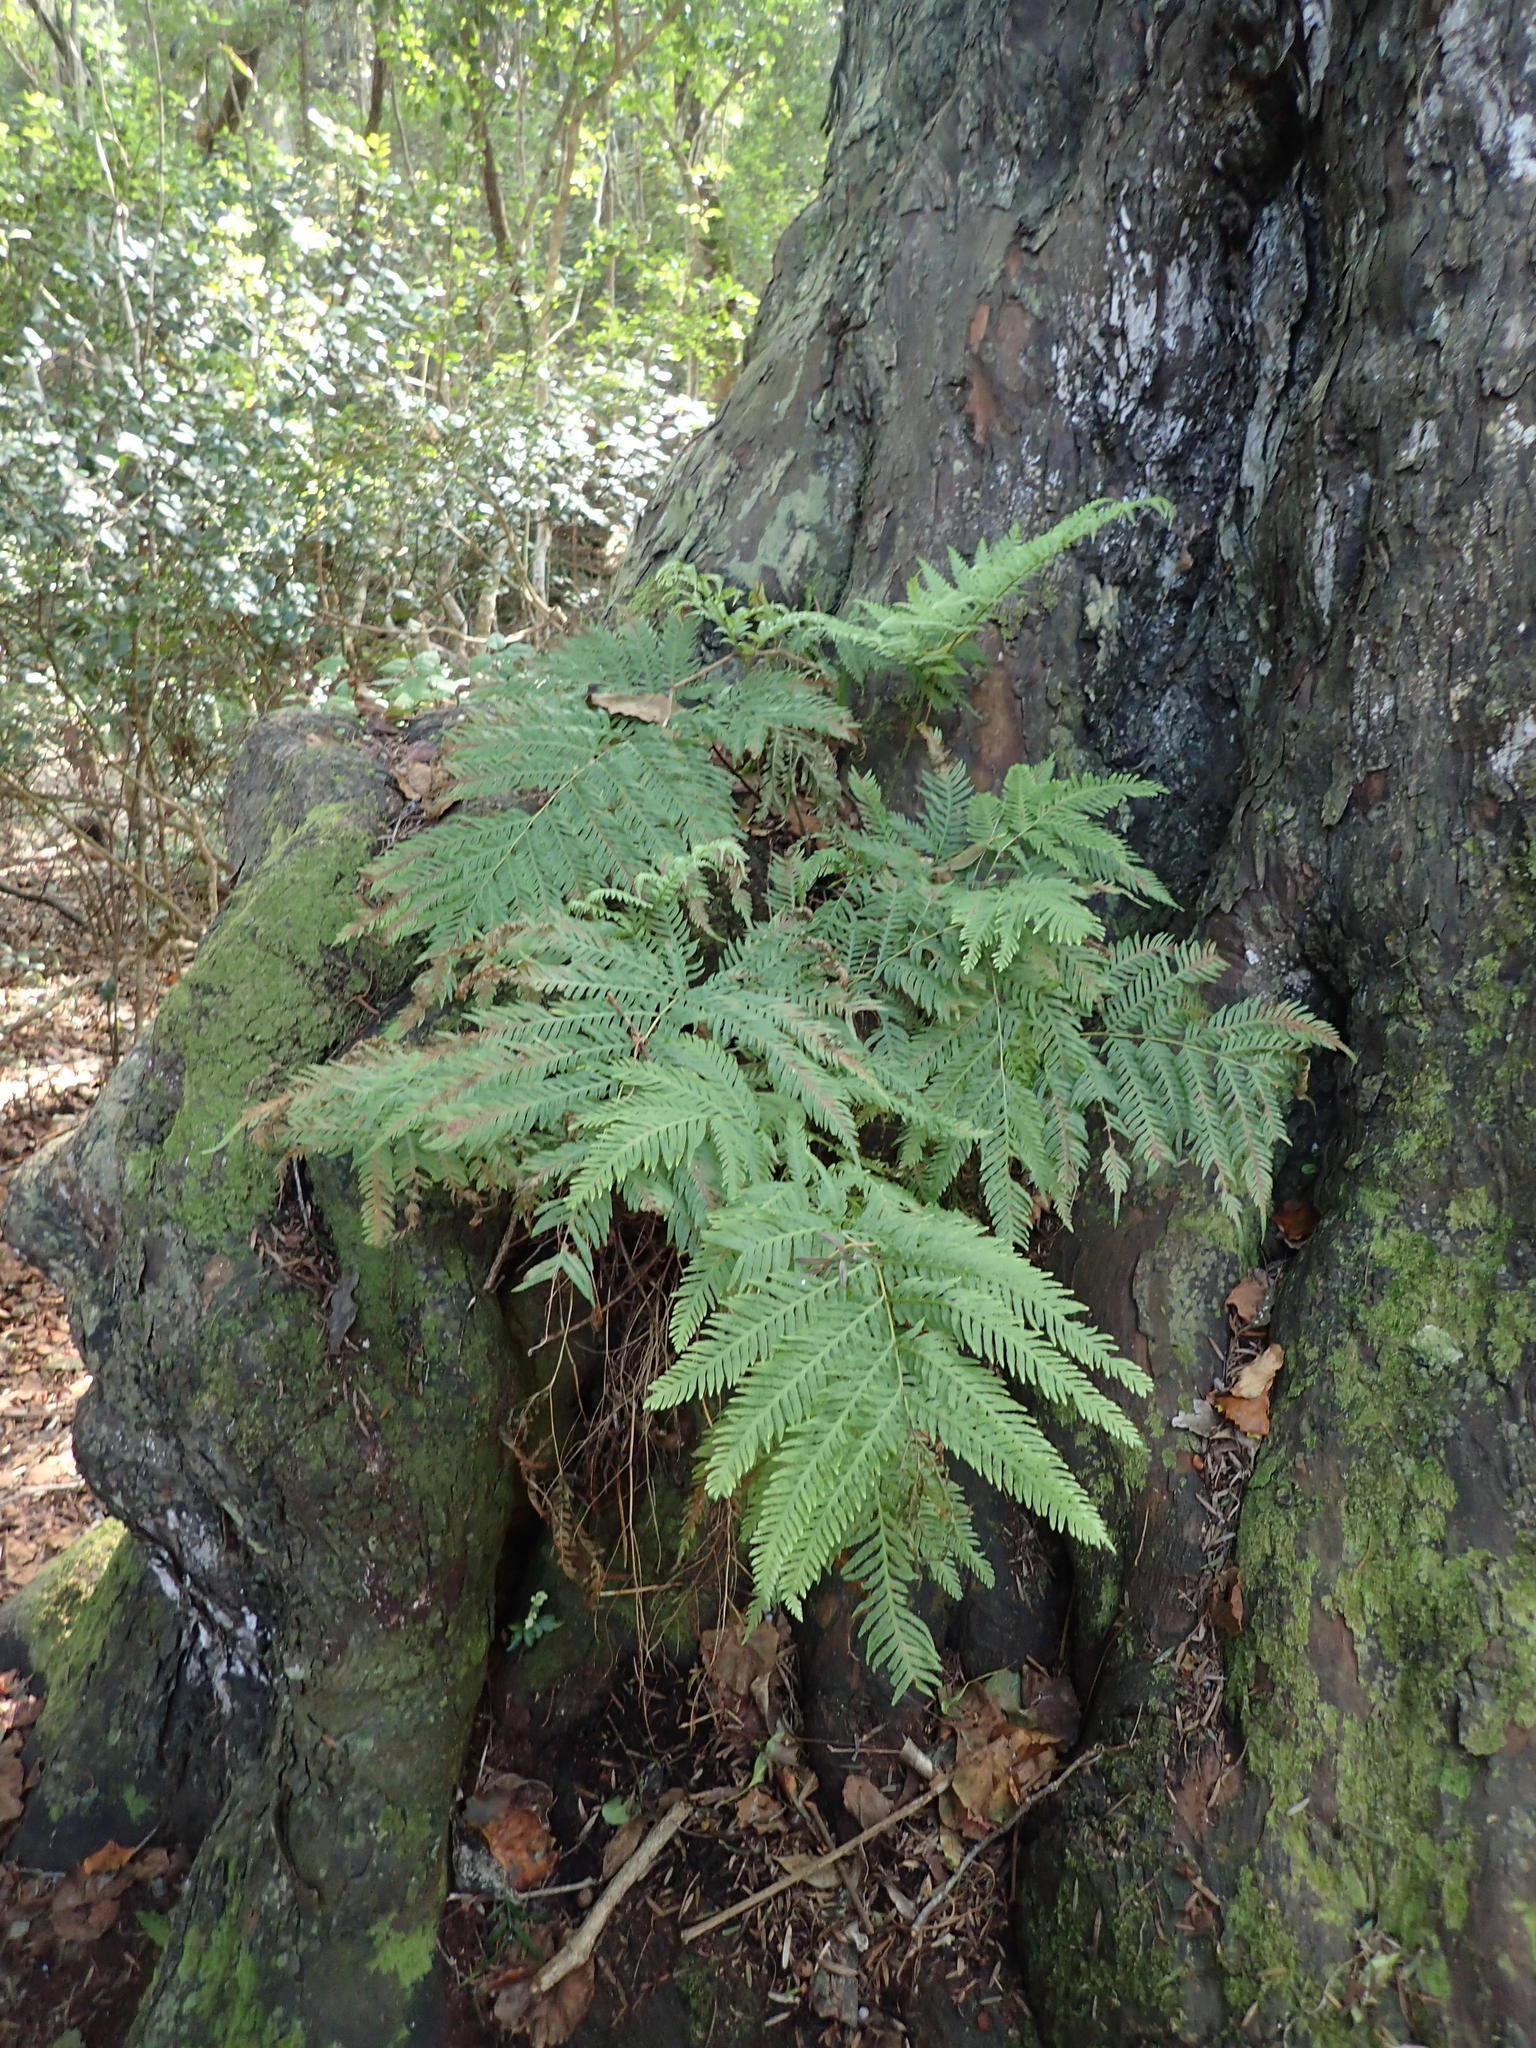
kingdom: Plantae
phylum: Tracheophyta
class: Polypodiopsida
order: Polypodiales
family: Pteridaceae
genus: Pteris
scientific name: Pteris tremula
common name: Australian brake
